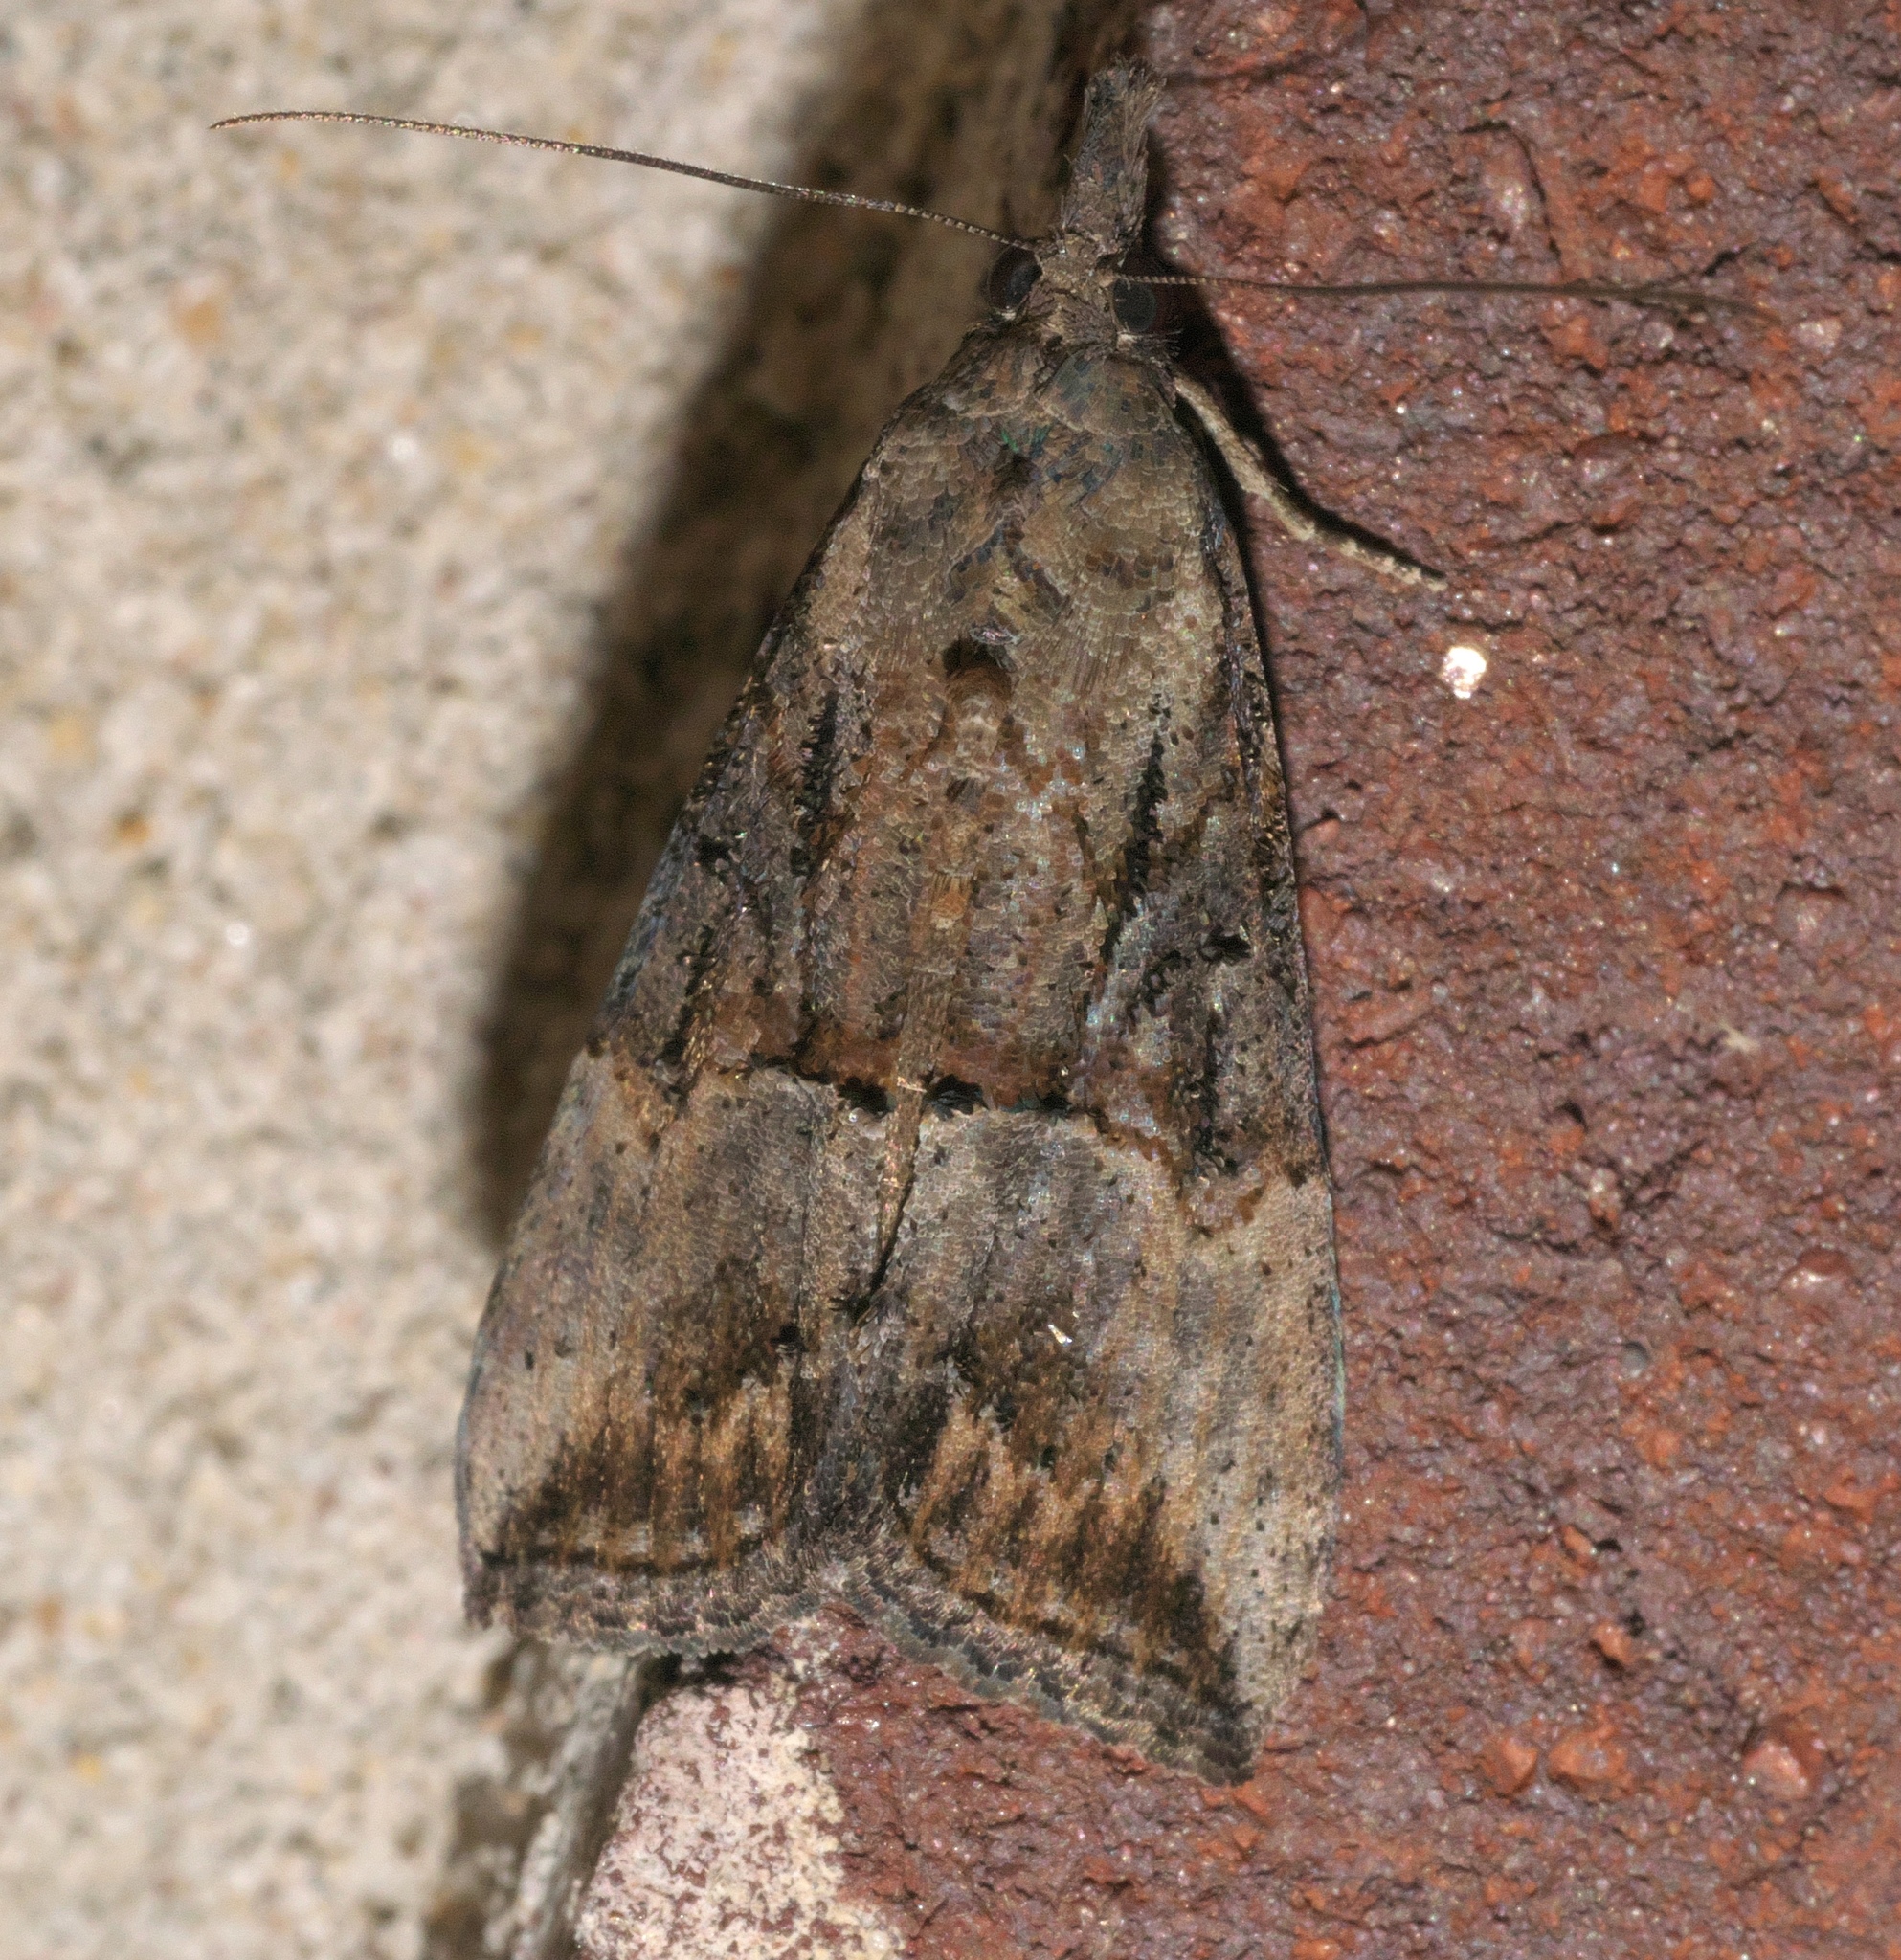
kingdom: Animalia
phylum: Arthropoda
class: Insecta
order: Lepidoptera
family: Erebidae
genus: Hypena
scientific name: Hypena scabra
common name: Green cloverworm
